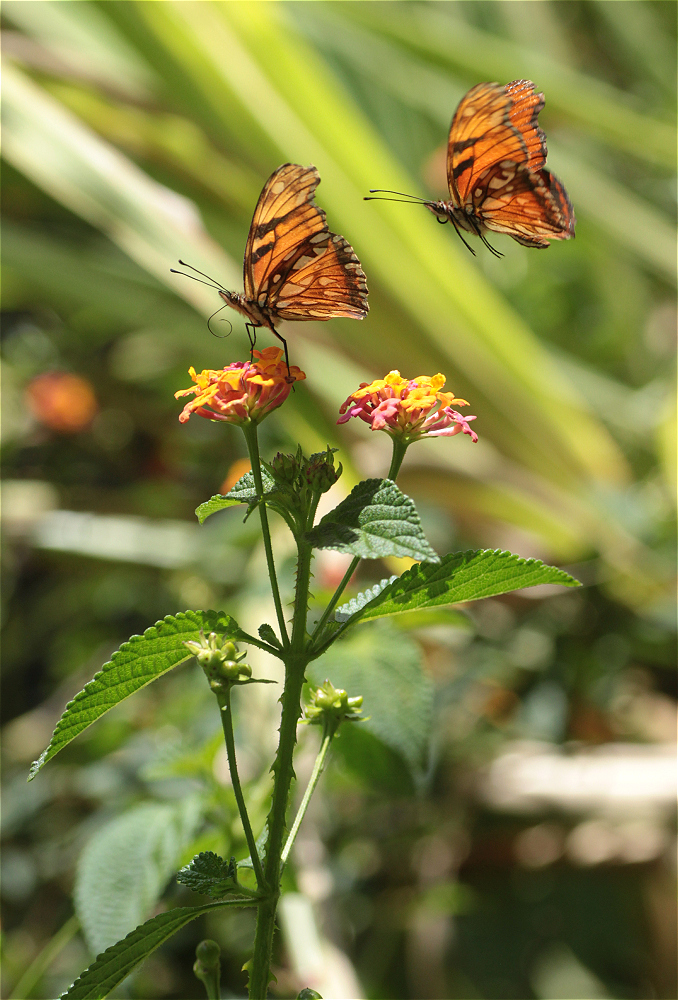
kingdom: Animalia
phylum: Arthropoda
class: Insecta
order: Lepidoptera
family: Nymphalidae
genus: Dione
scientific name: Dione juno
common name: Juno silverspot
